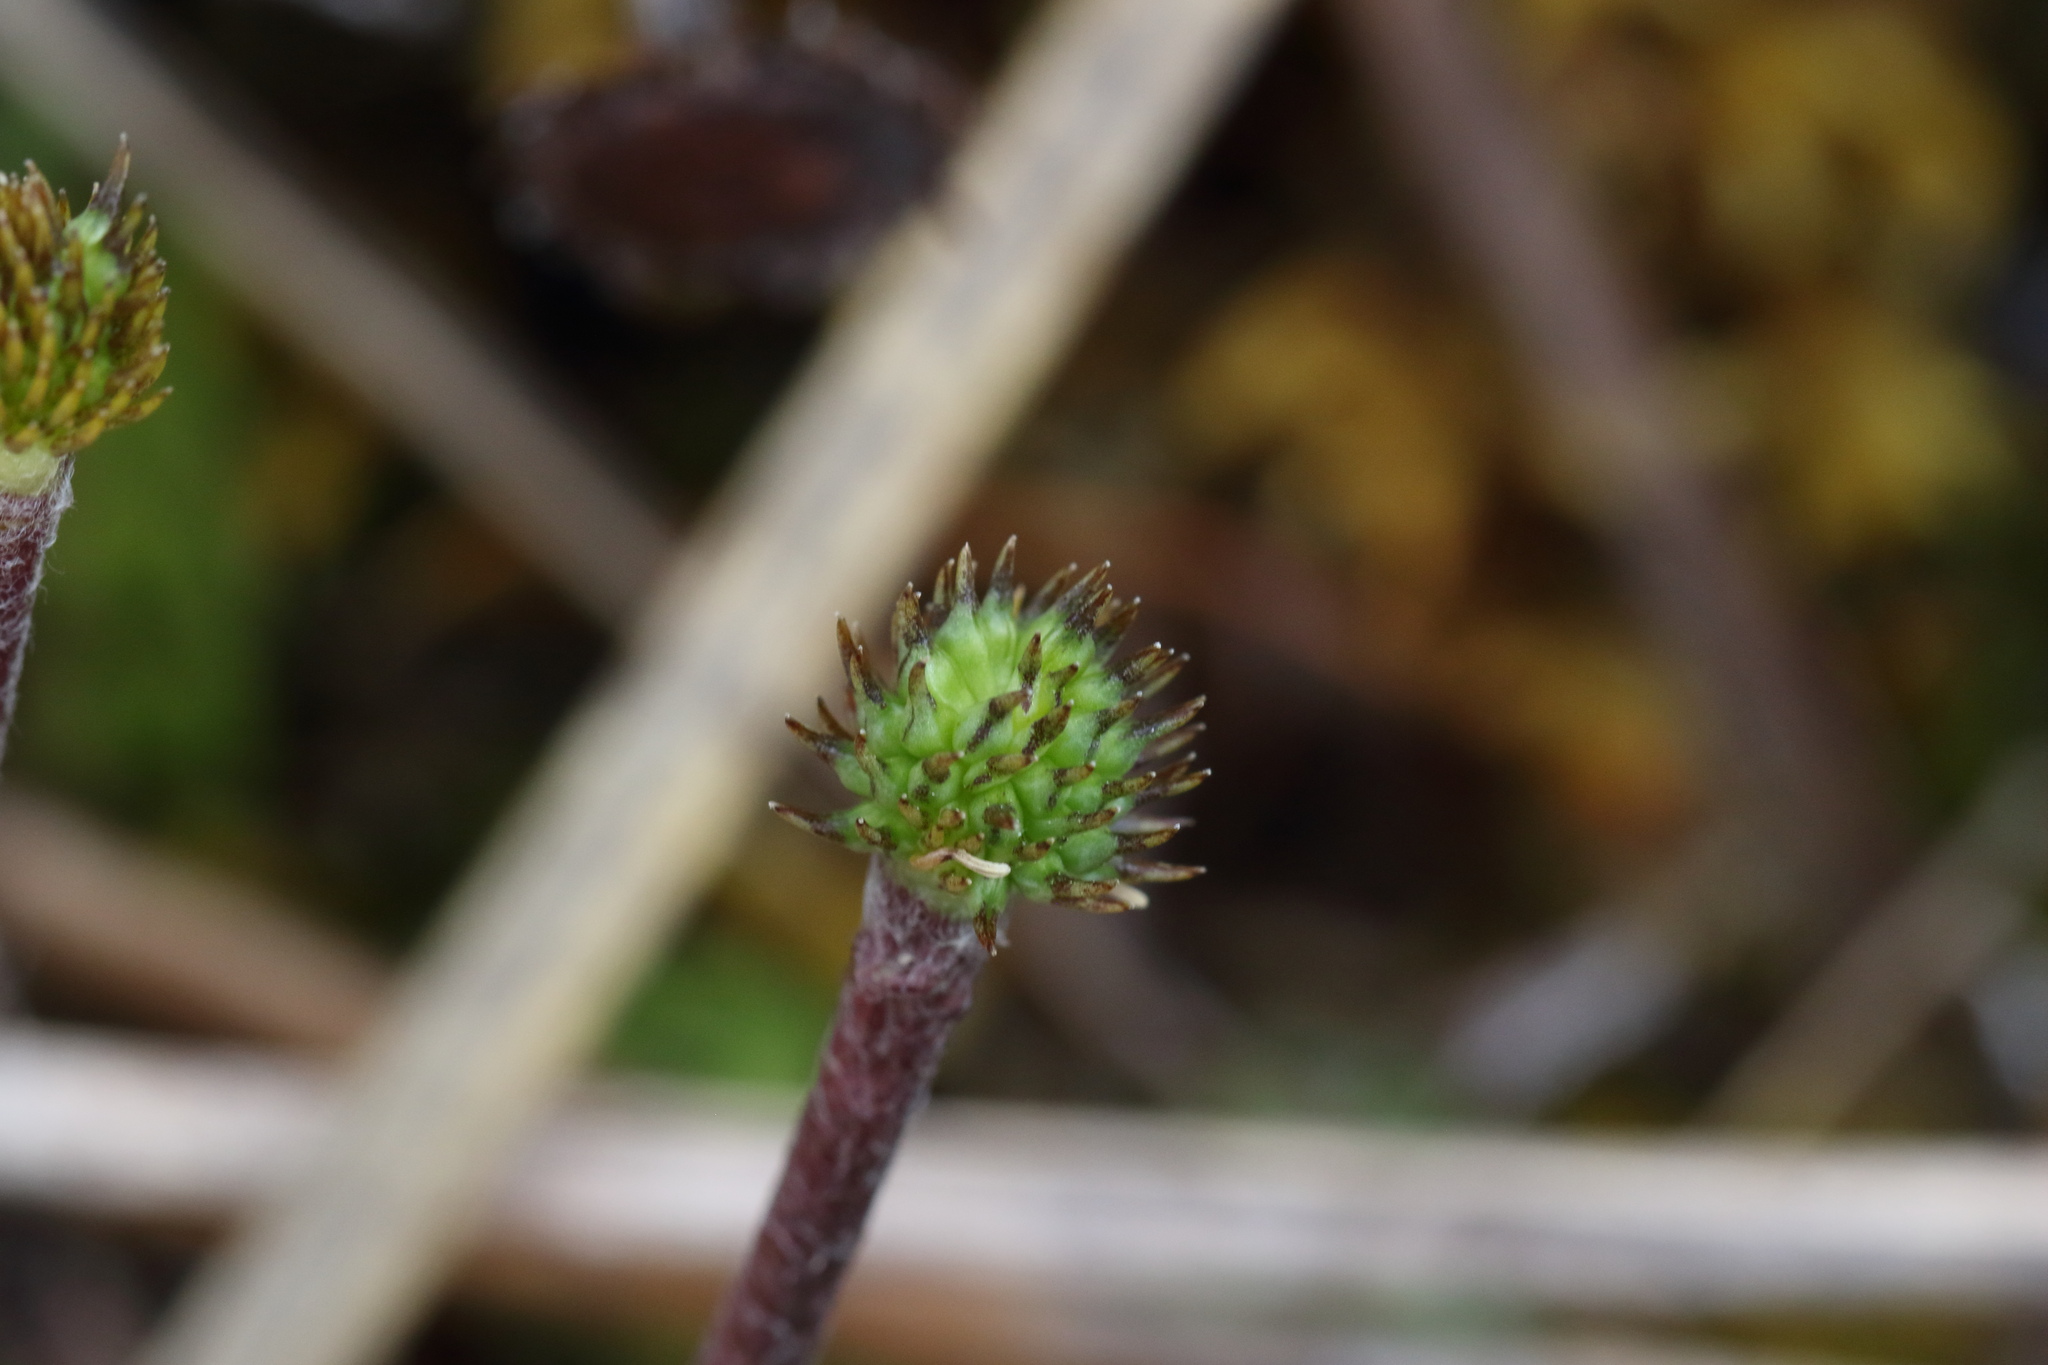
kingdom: Plantae
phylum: Tracheophyta
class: Magnoliopsida
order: Ranunculales
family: Ranunculaceae
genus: Ranunculus
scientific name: Ranunculus verticillatus
